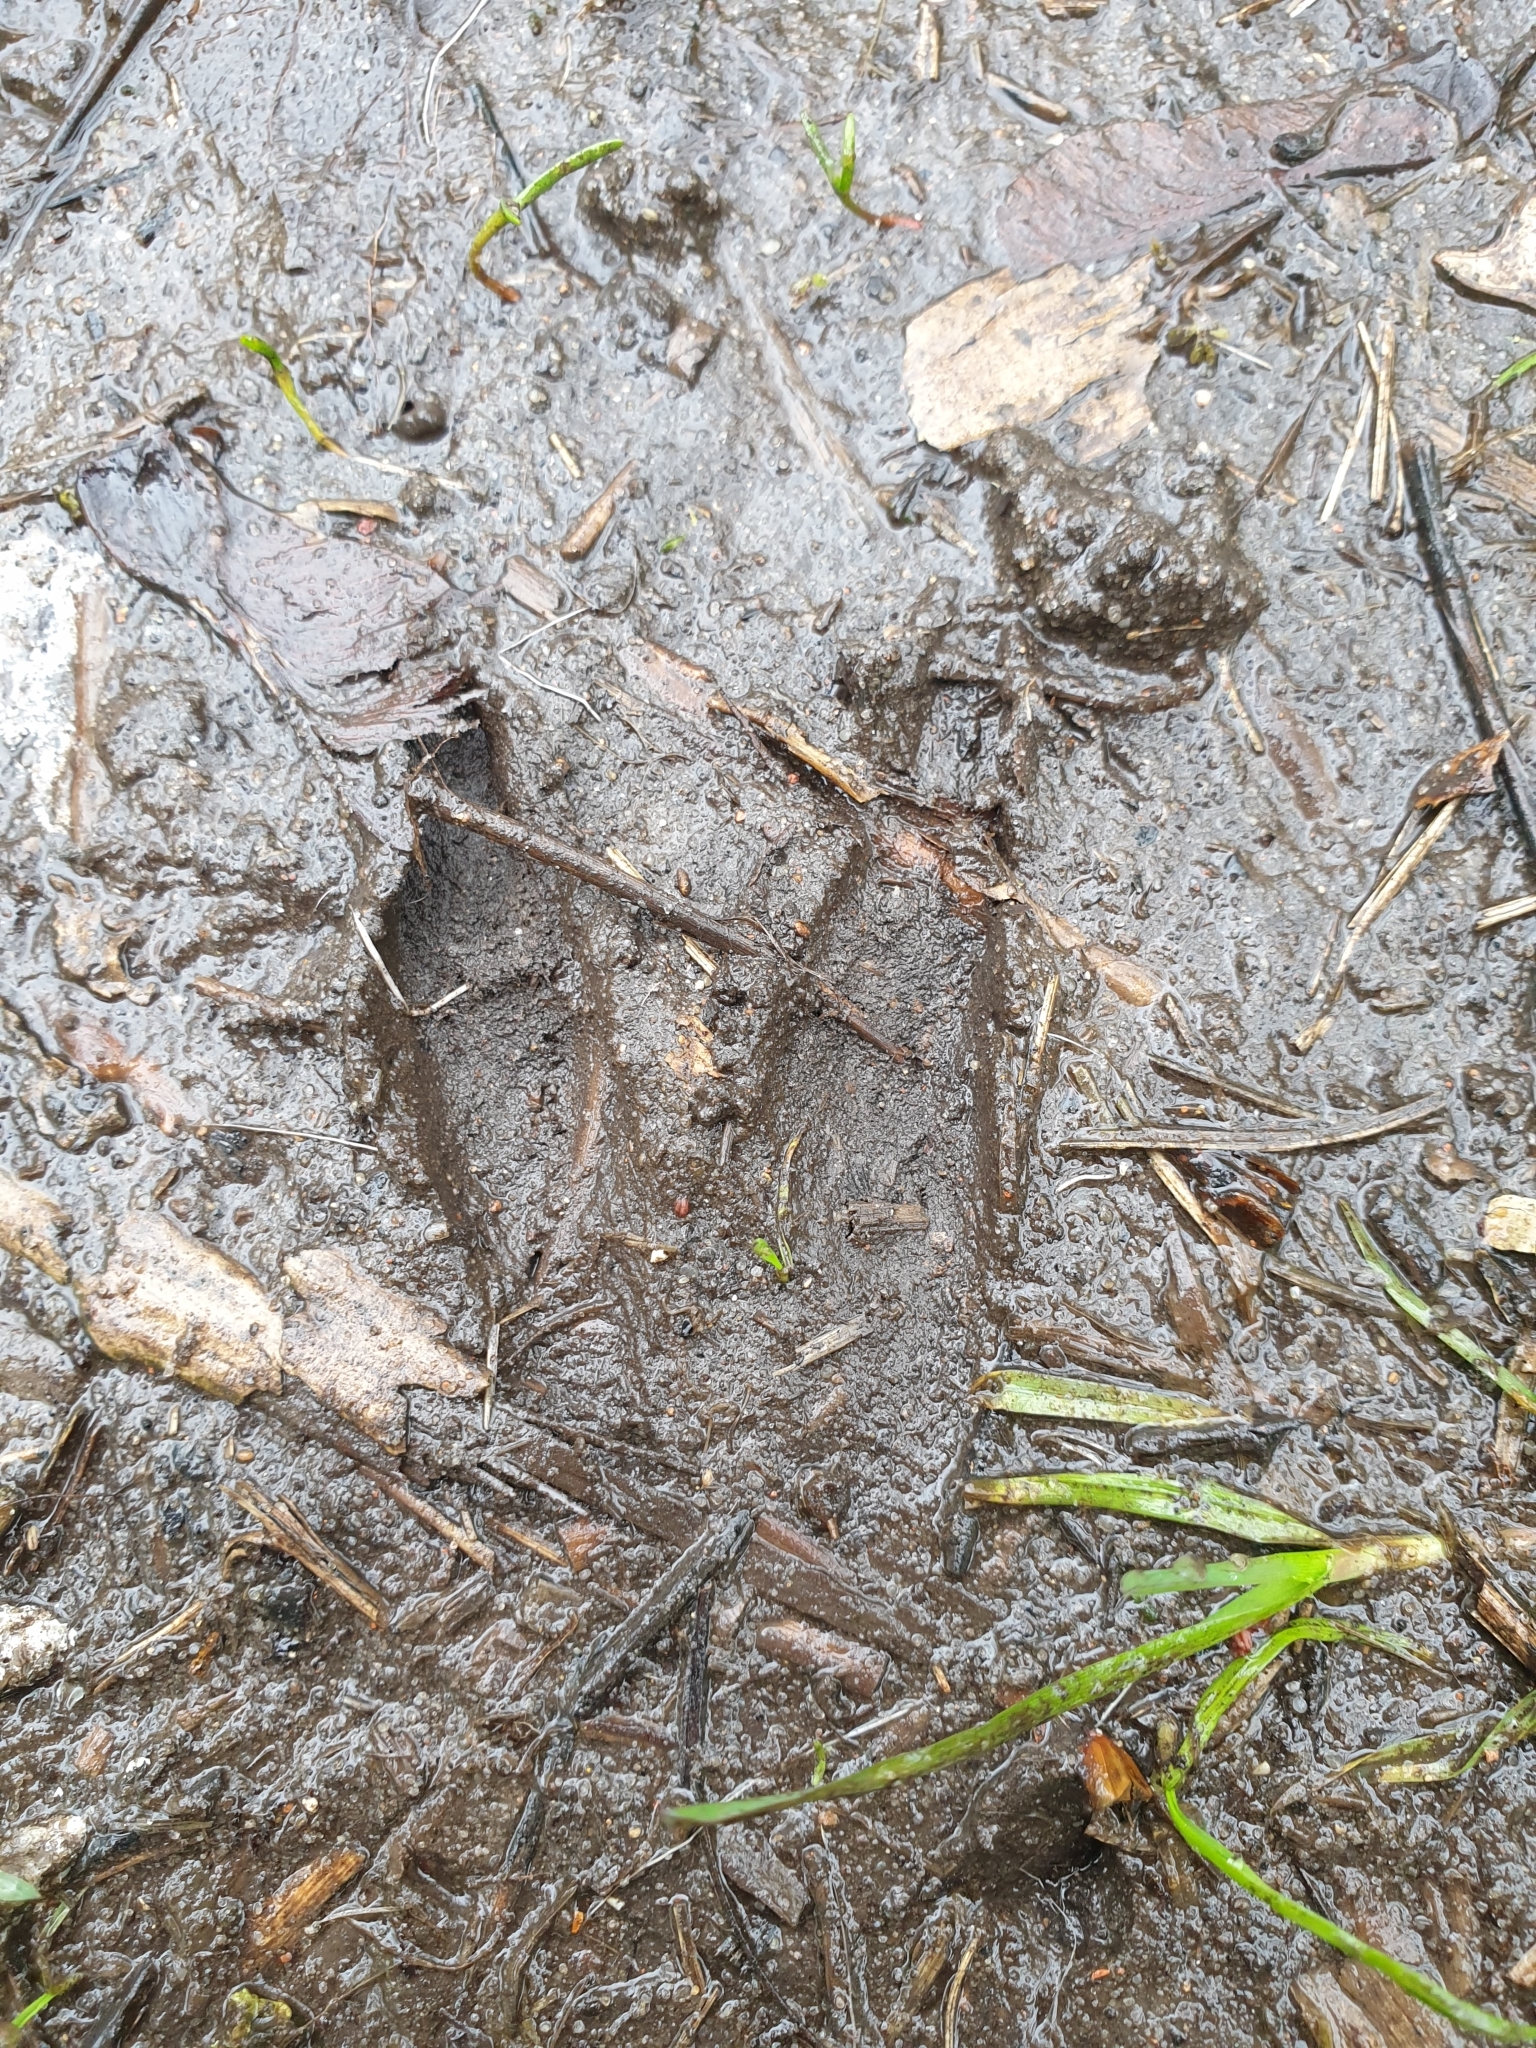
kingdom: Animalia
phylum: Chordata
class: Mammalia
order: Artiodactyla
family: Cervidae
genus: Capreolus
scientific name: Capreolus capreolus
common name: Western roe deer
